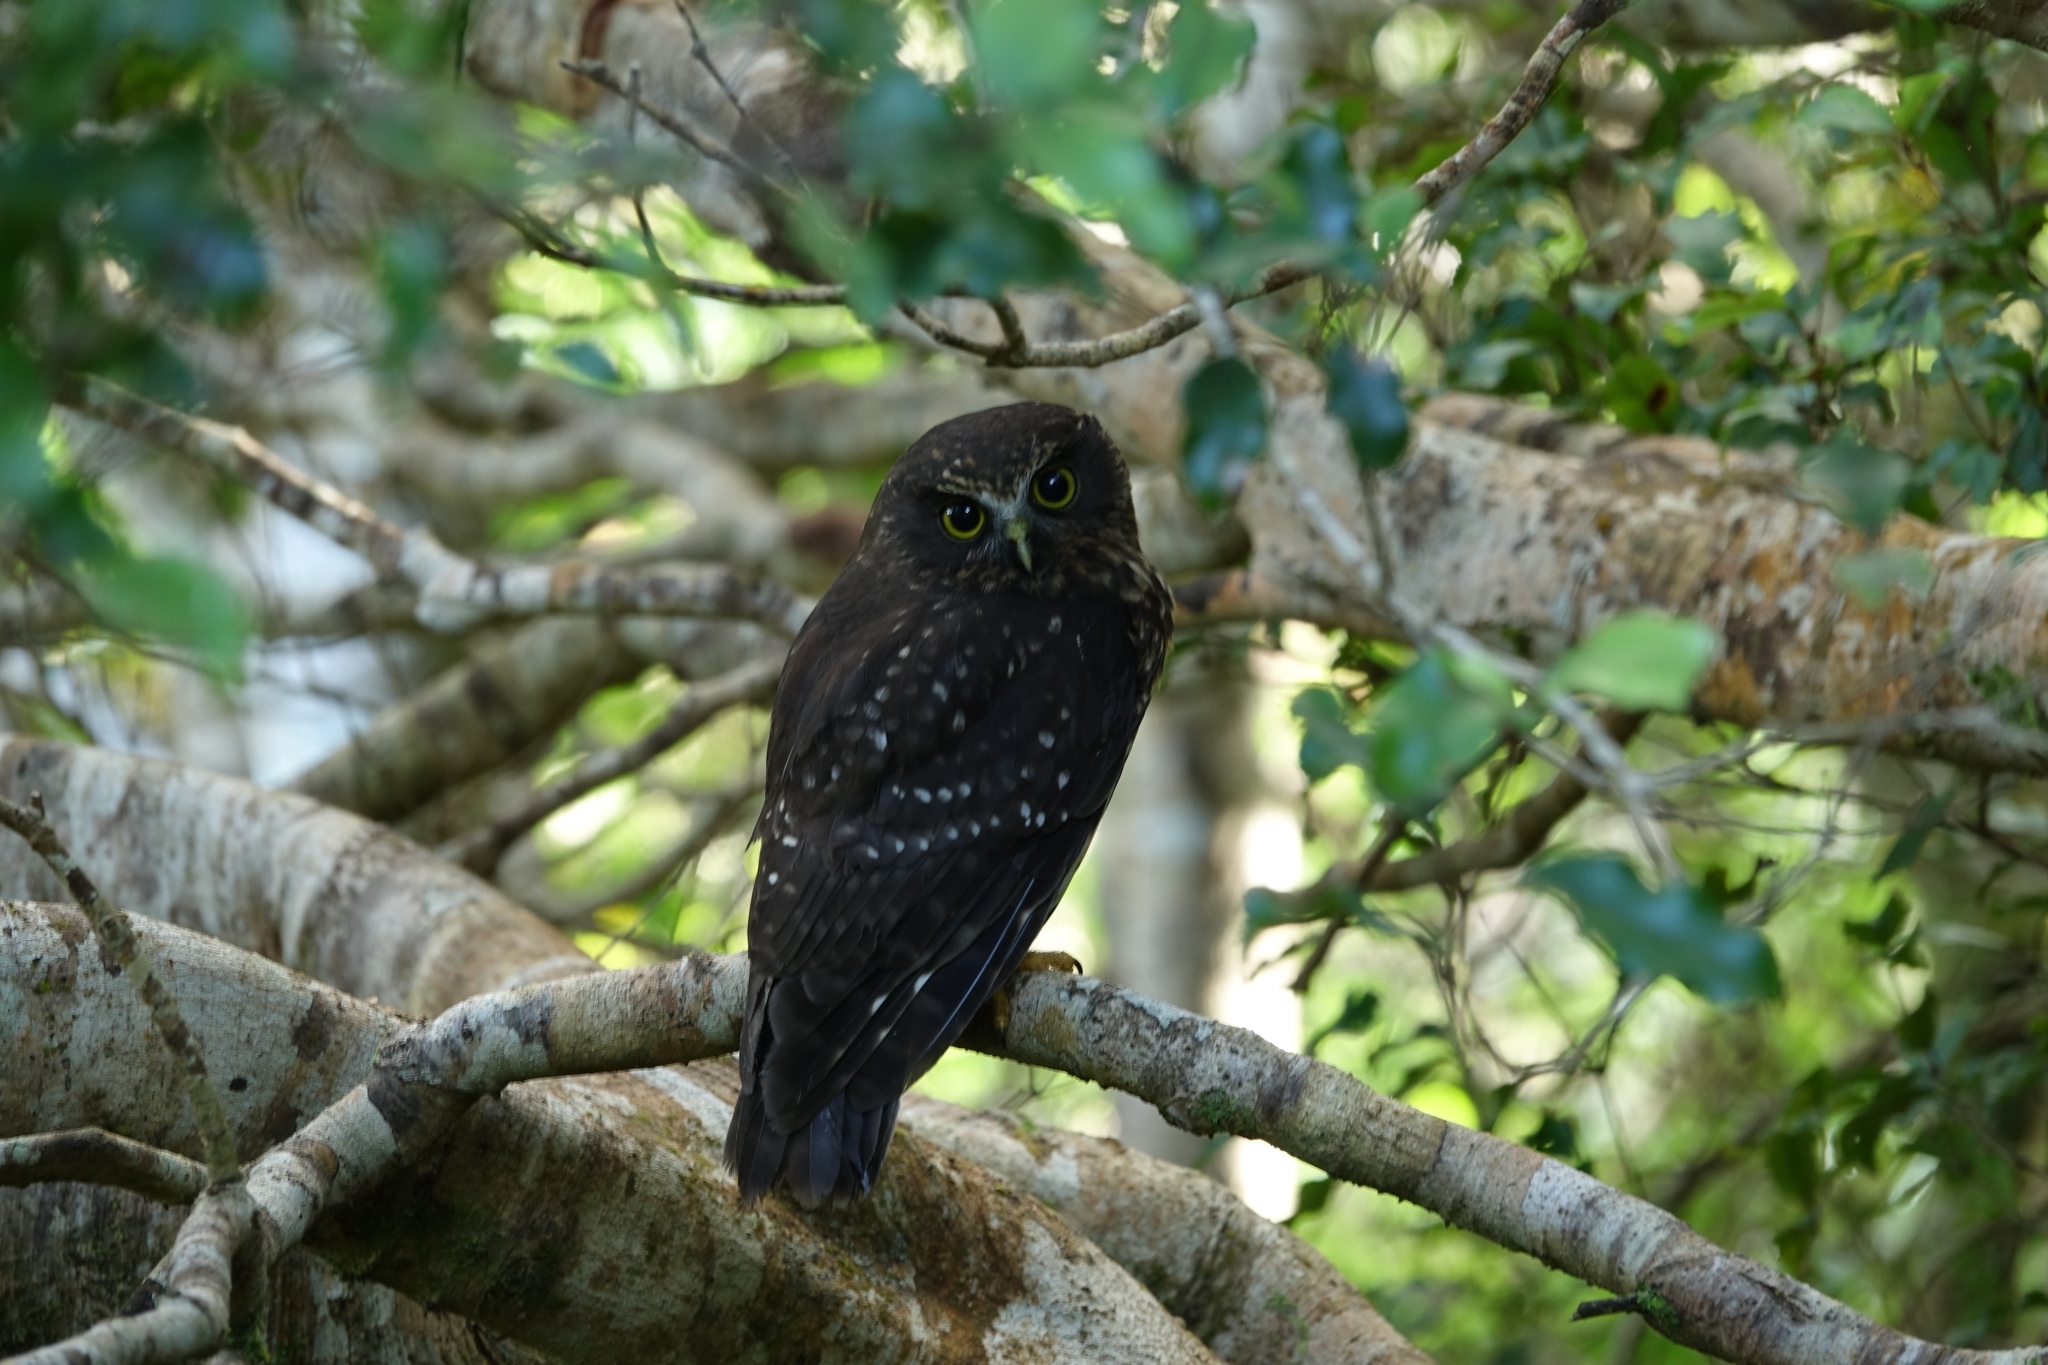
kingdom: Animalia
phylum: Chordata
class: Aves
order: Strigiformes
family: Strigidae
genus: Ninox
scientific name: Ninox novaeseelandiae
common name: Morepork
